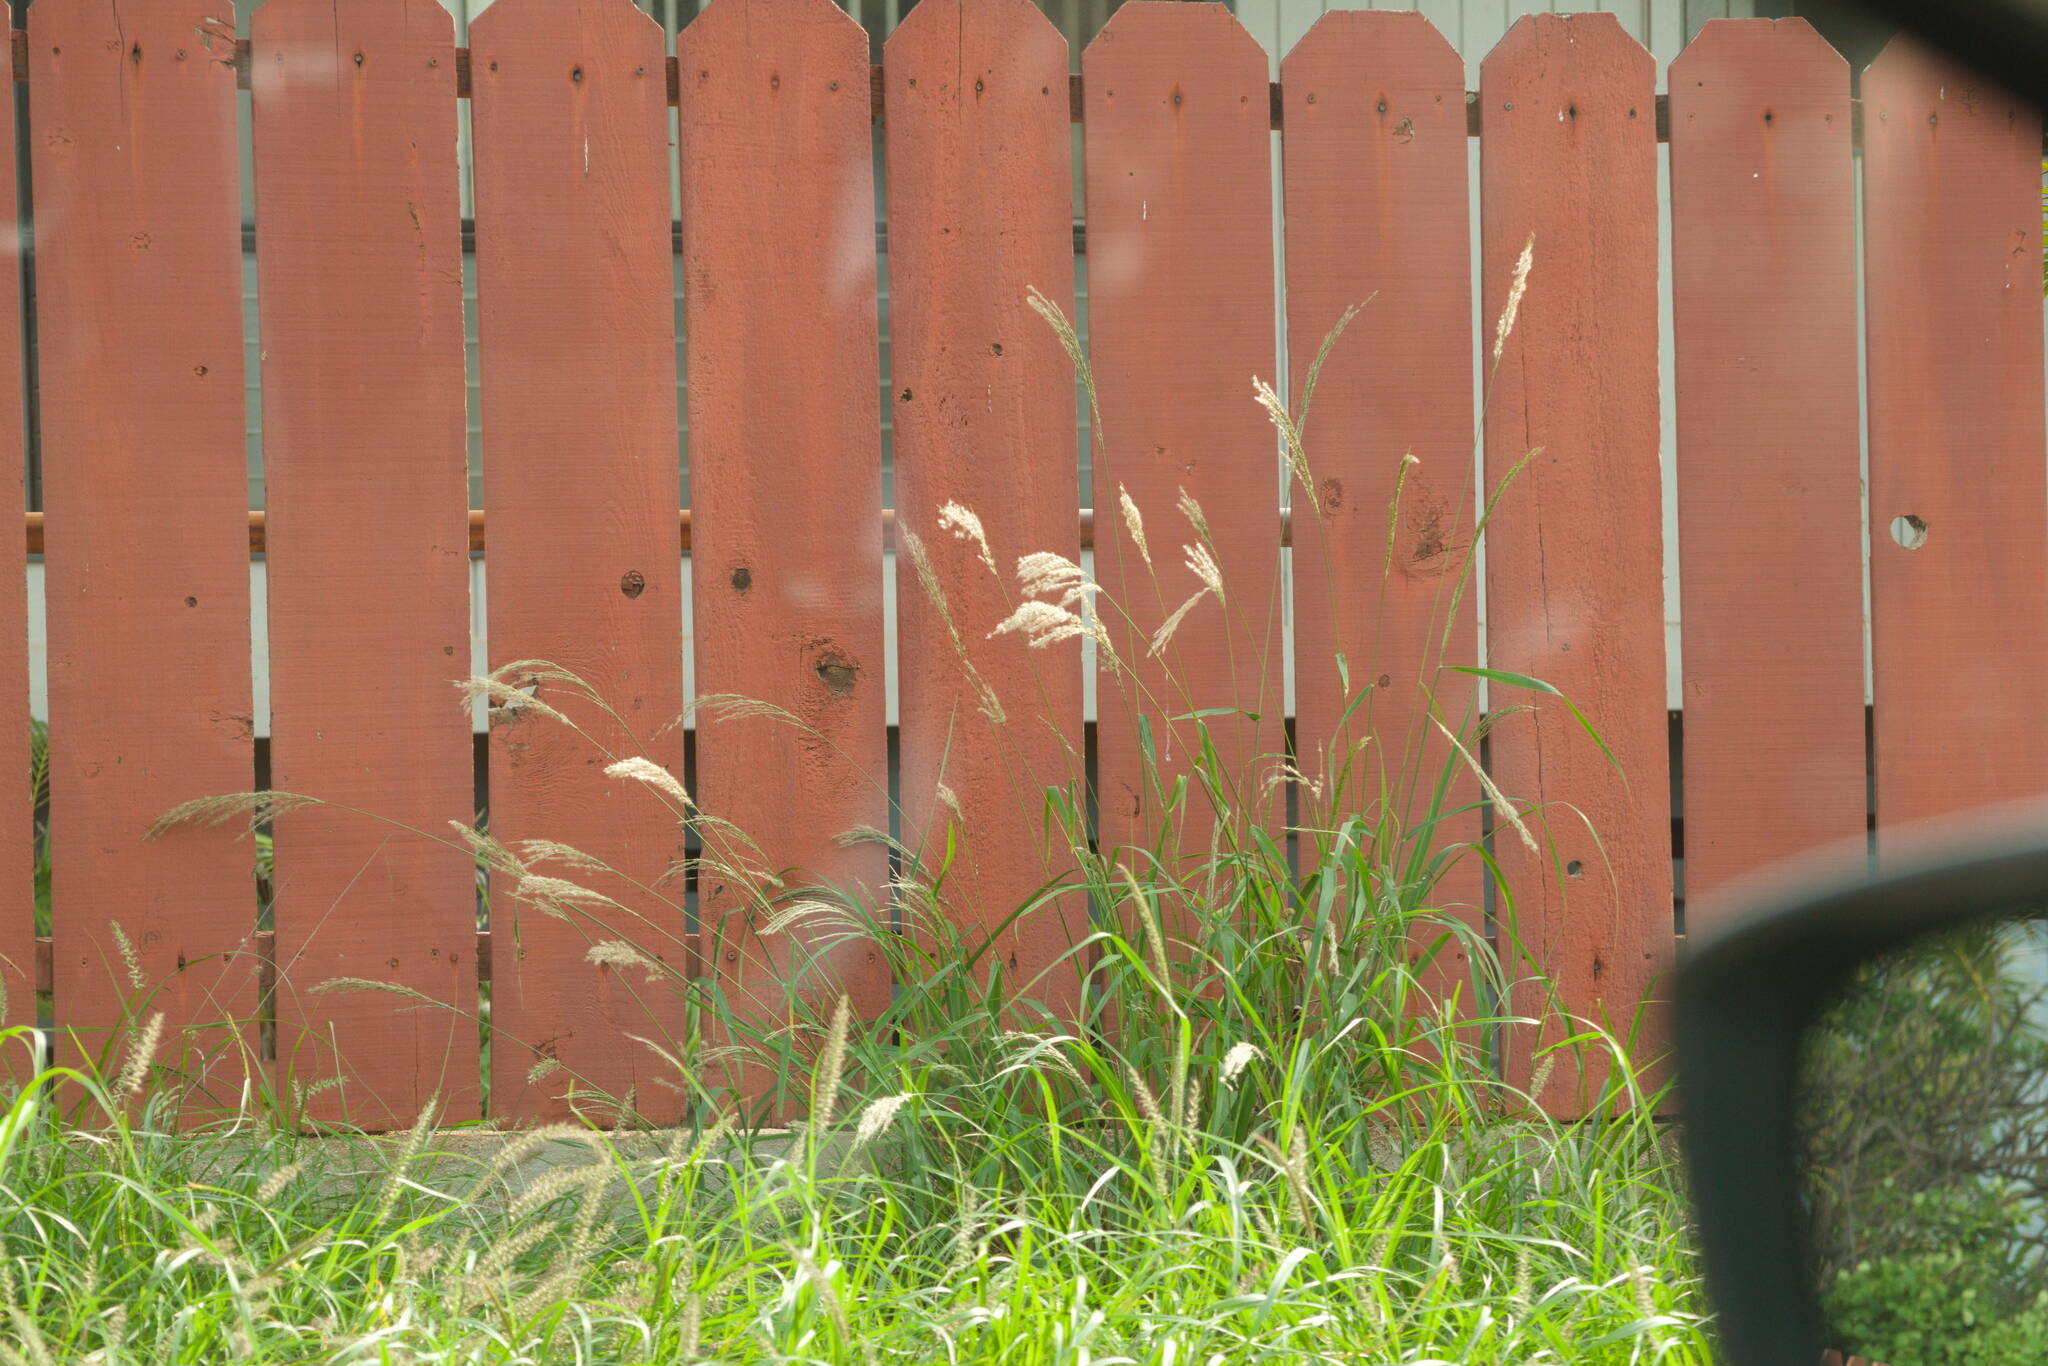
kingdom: Plantae
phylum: Tracheophyta
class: Liliopsida
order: Poales
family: Poaceae
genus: Digitaria
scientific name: Digitaria insularis
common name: Sourgrass
